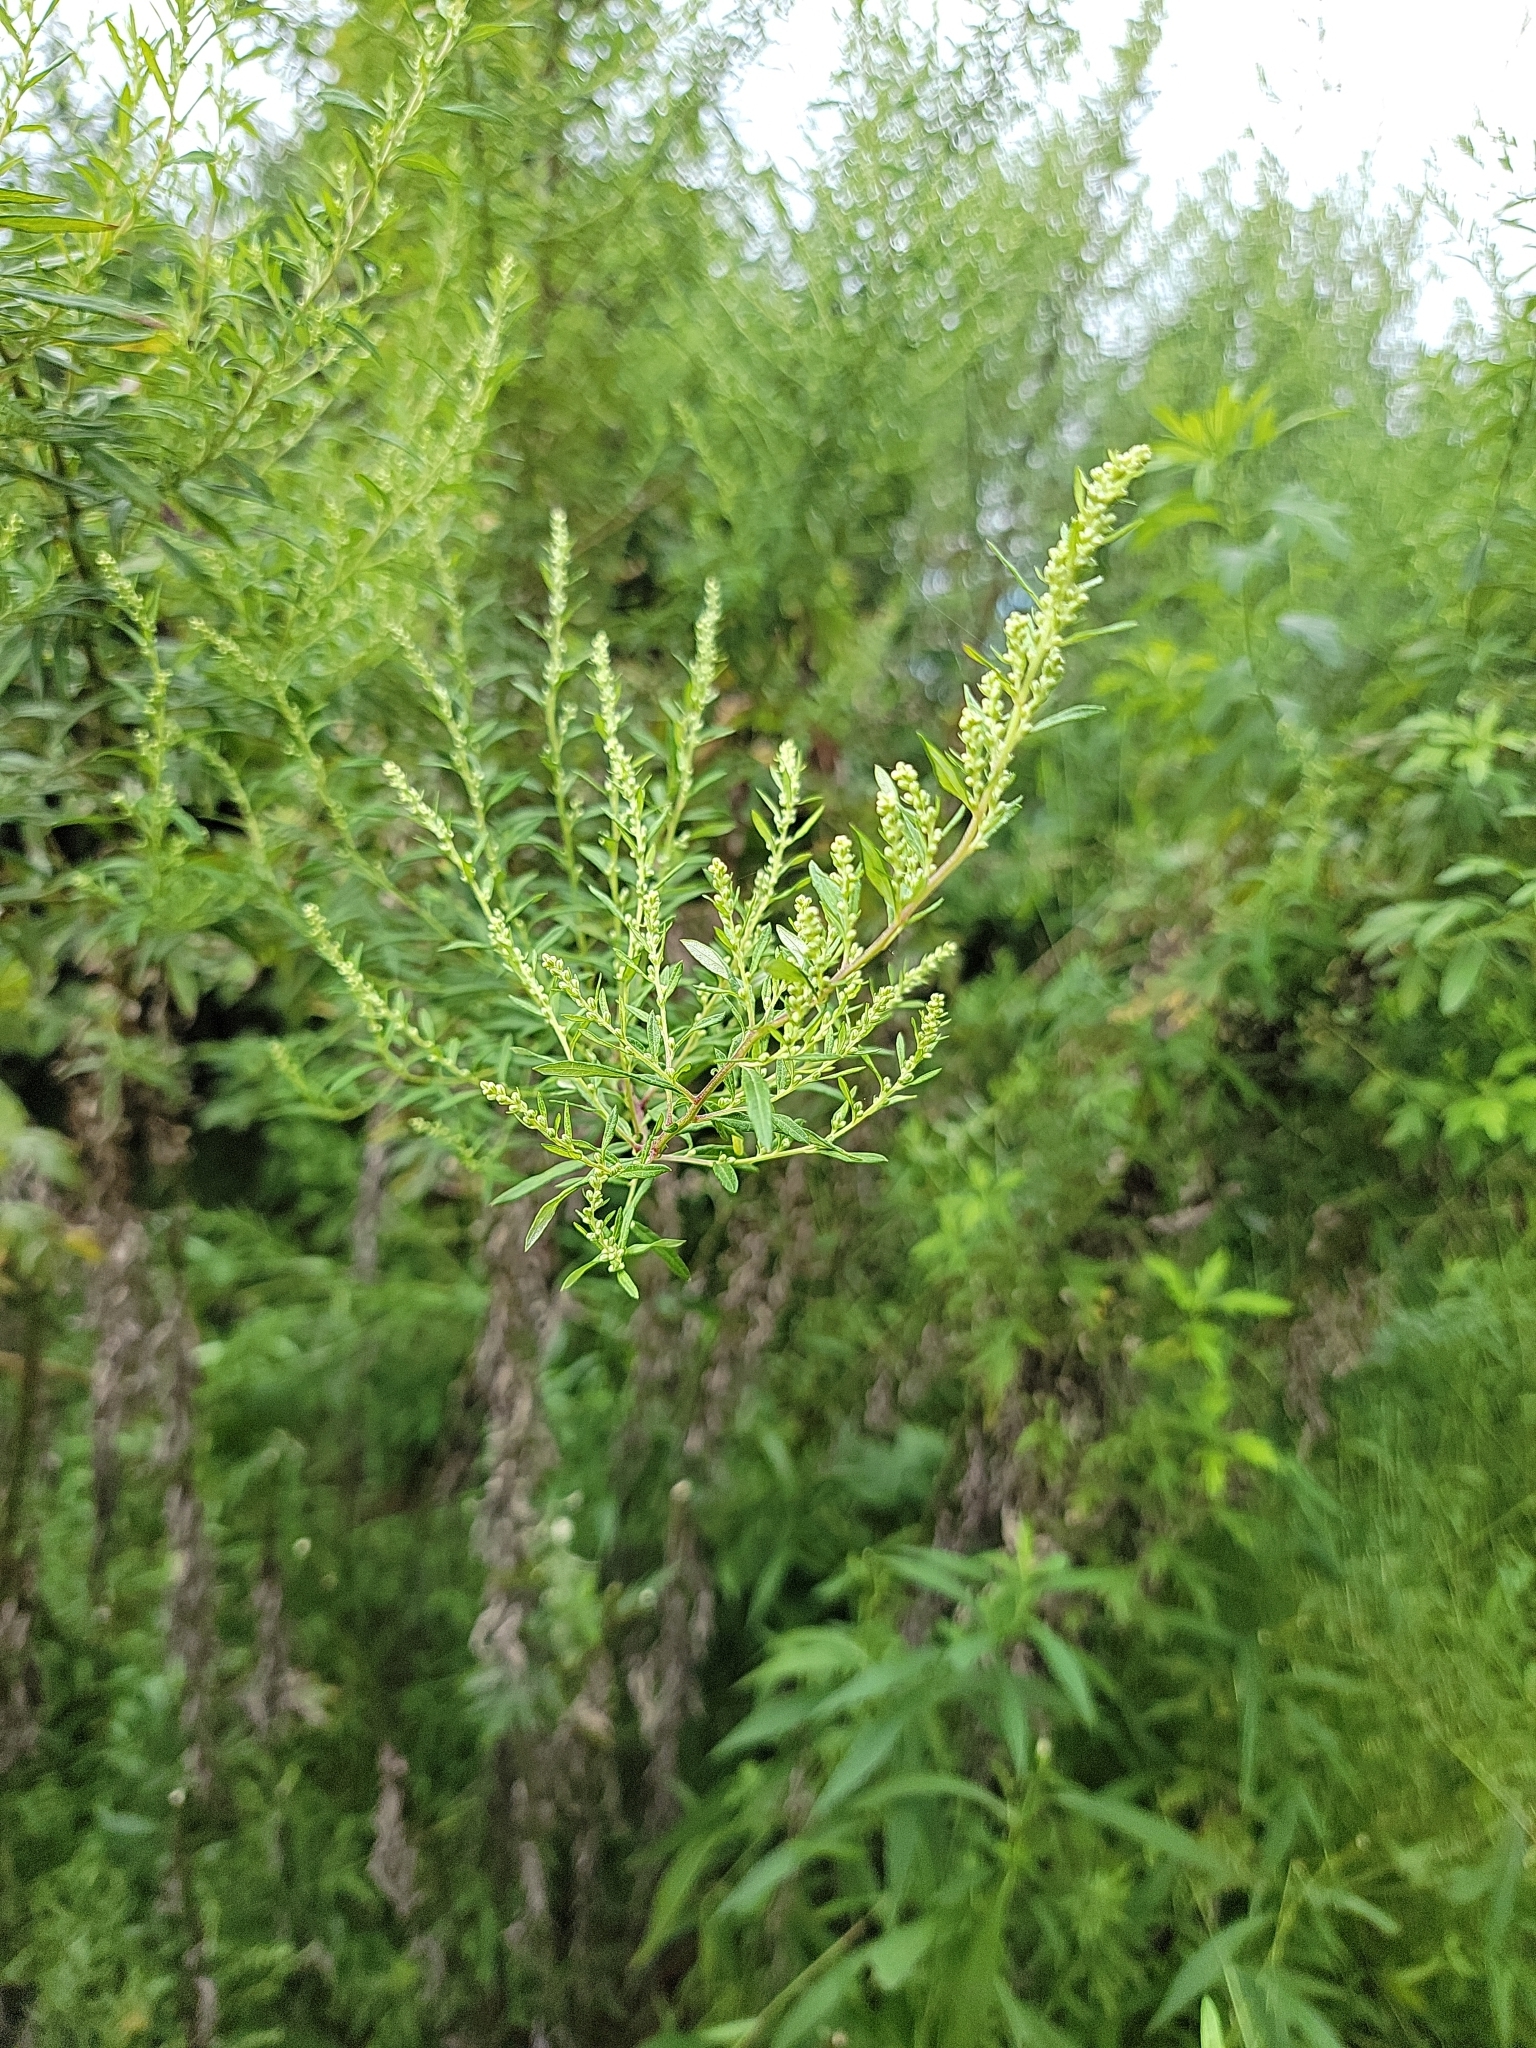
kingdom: Plantae
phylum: Tracheophyta
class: Magnoliopsida
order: Asterales
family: Asteraceae
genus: Artemisia
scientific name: Artemisia vulgaris
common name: Mugwort
